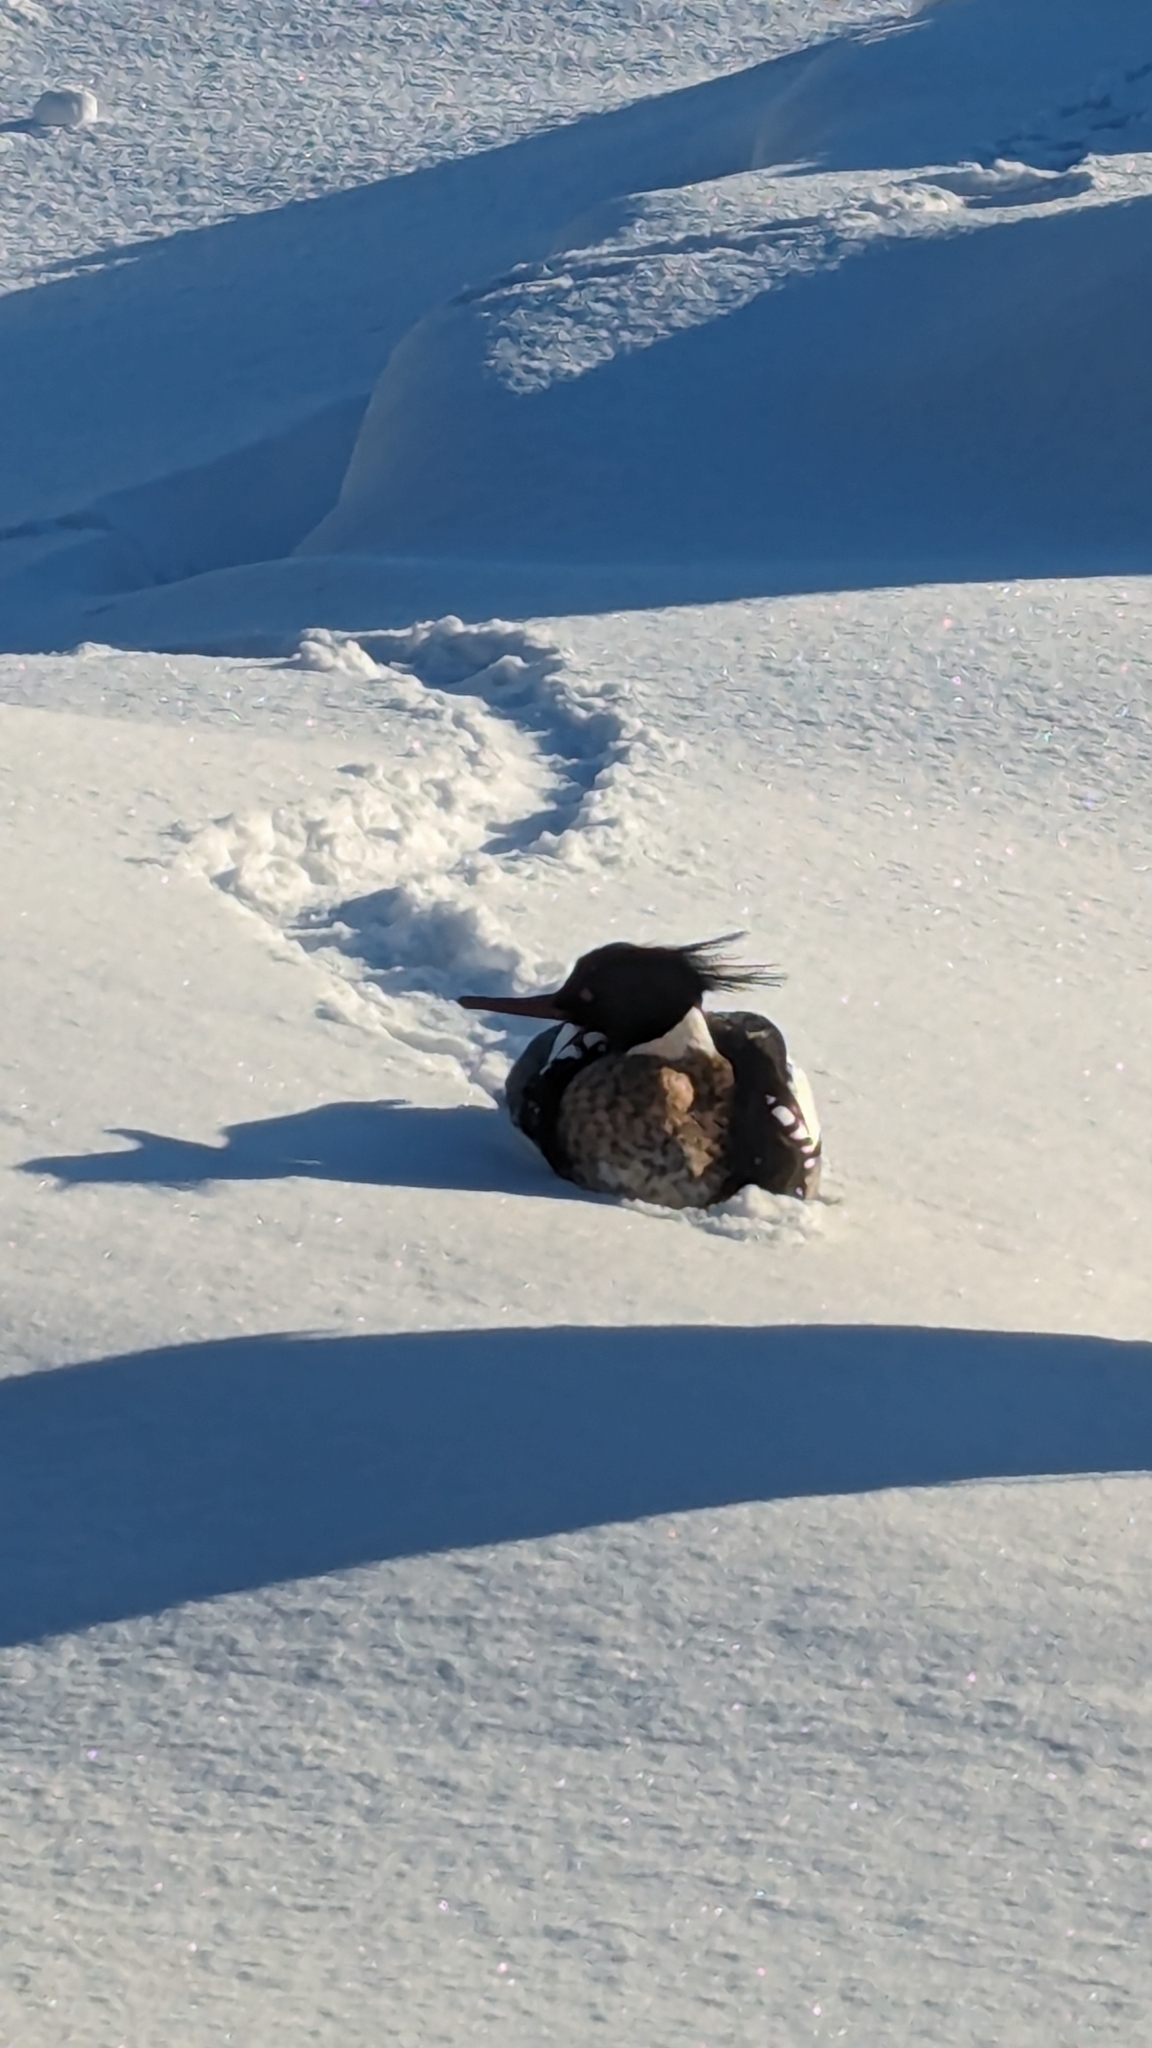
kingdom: Animalia
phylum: Chordata
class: Aves
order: Anseriformes
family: Anatidae
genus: Mergus
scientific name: Mergus serrator
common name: Red-breasted merganser
